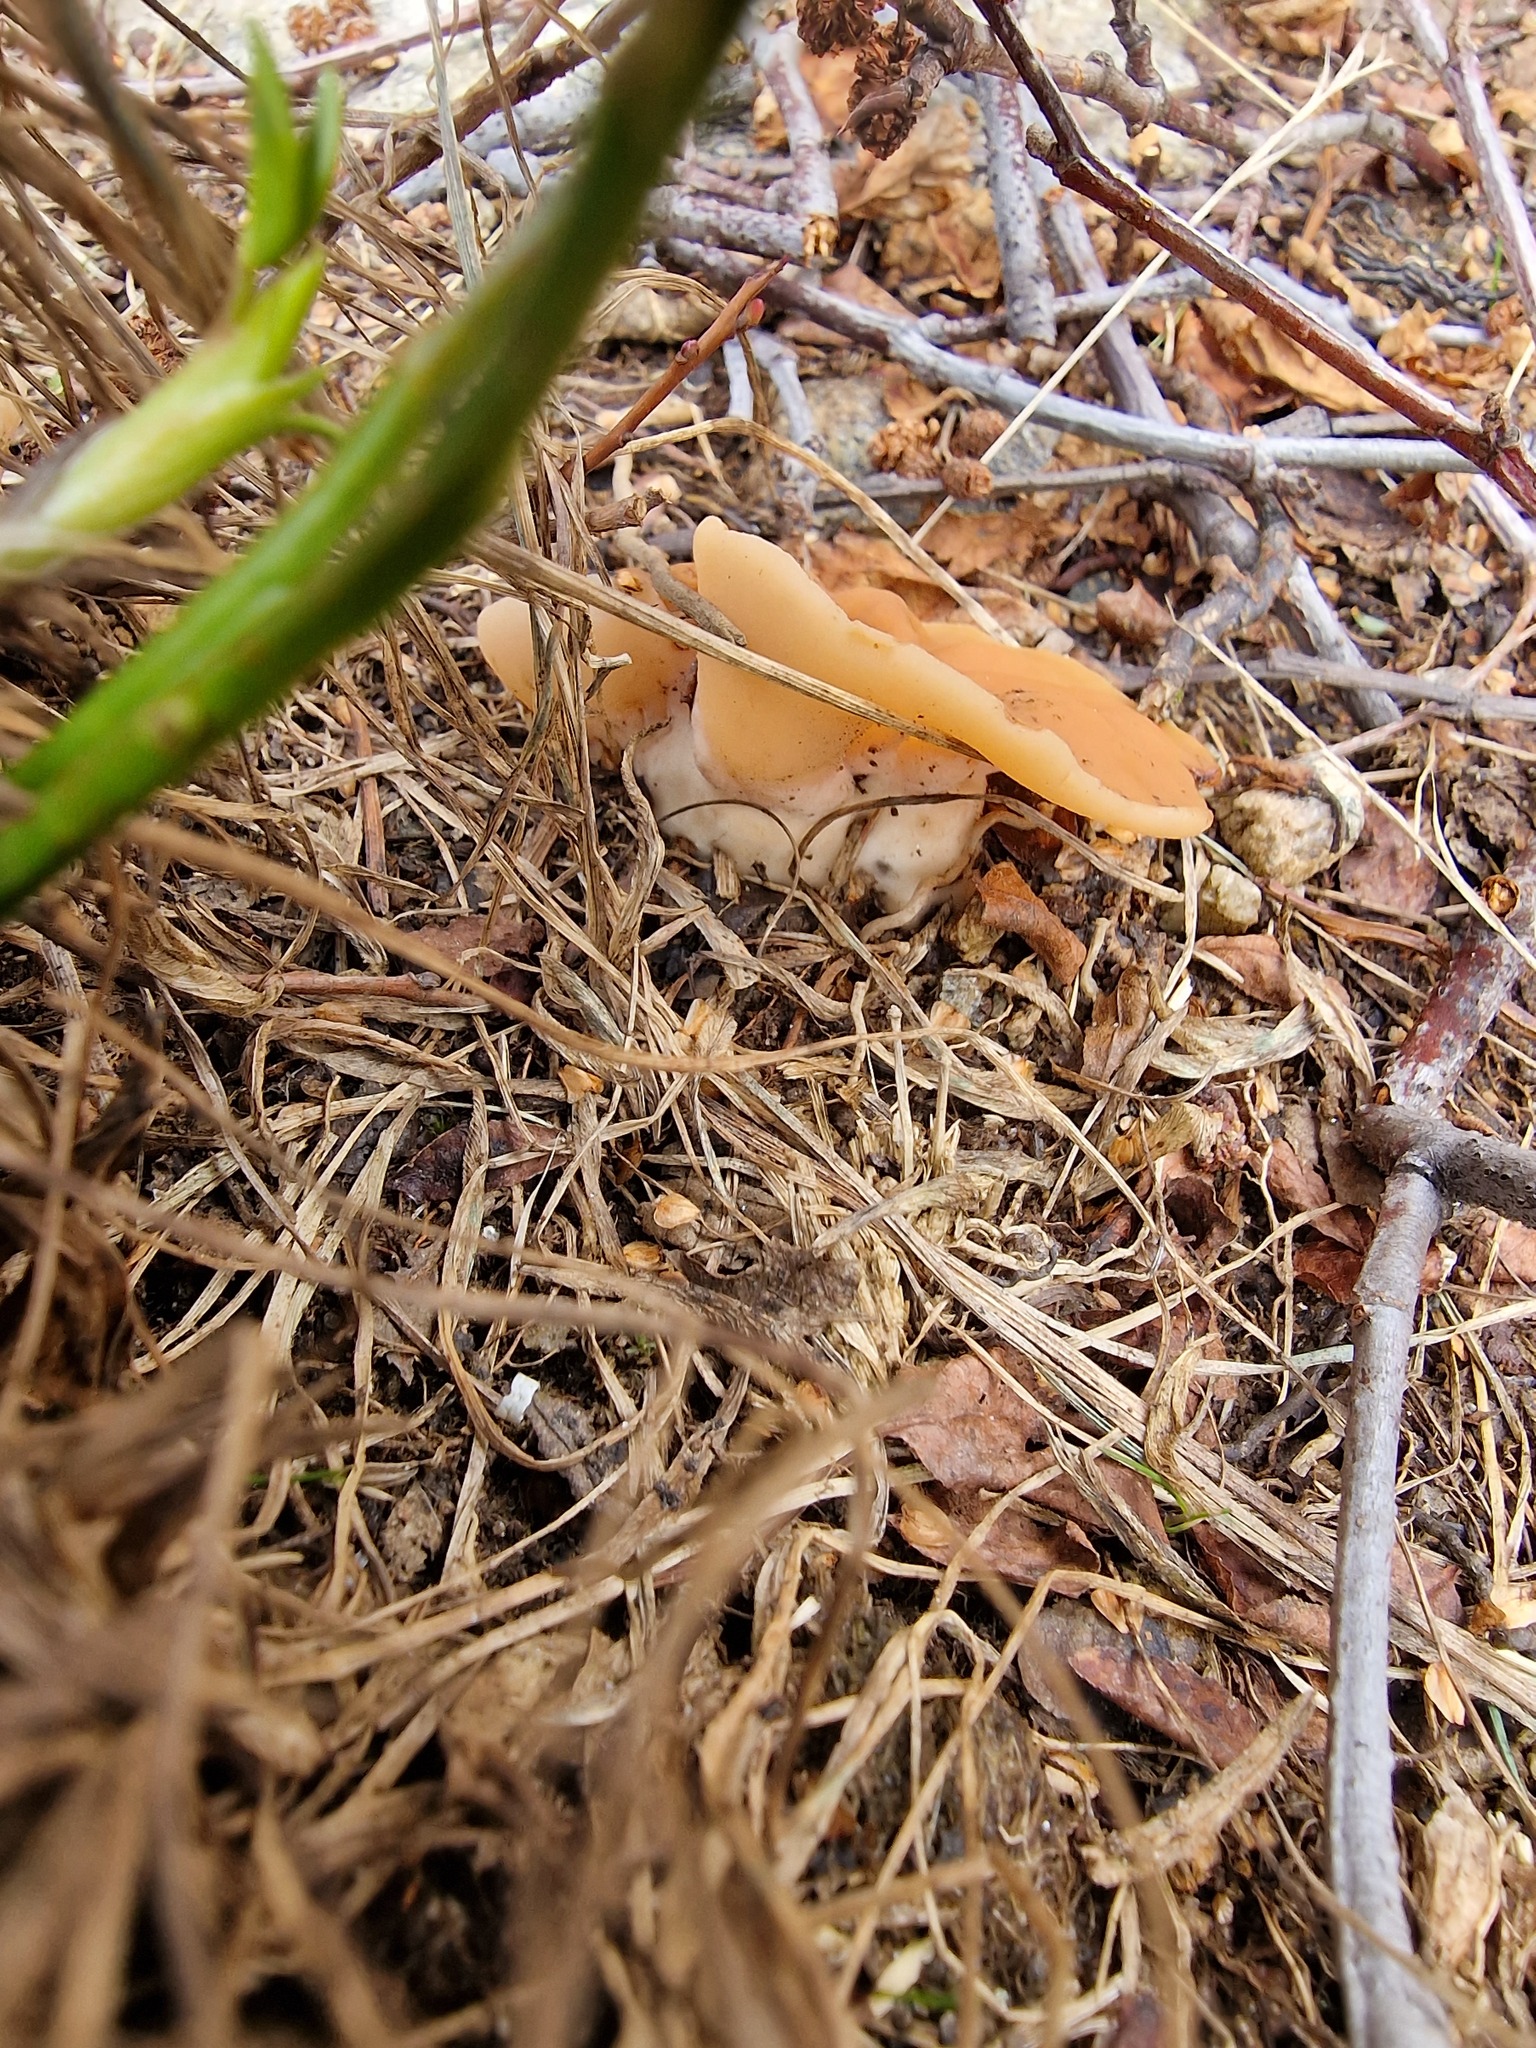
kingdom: Fungi
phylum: Ascomycota
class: Pezizomycetes
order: Pezizales
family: Discinaceae
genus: Discina
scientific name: Discina
